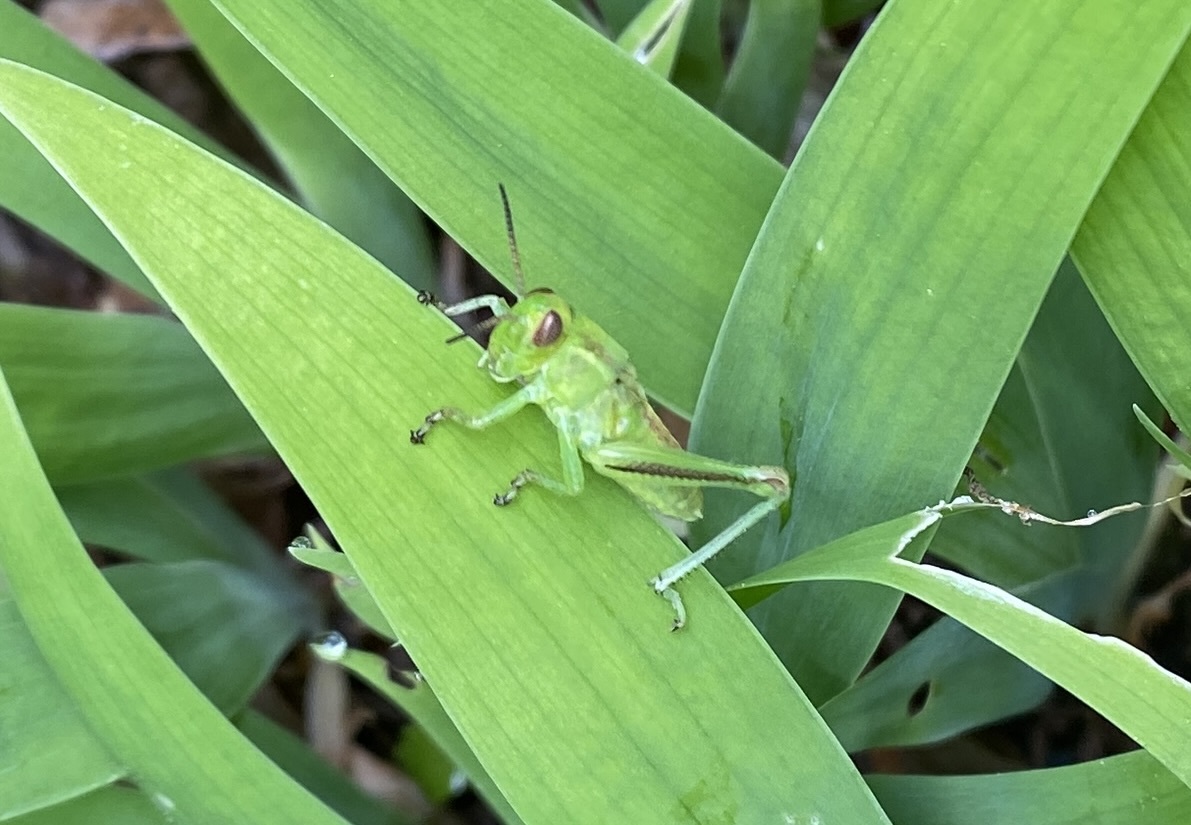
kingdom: Animalia
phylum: Arthropoda
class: Insecta
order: Orthoptera
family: Acrididae
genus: Melanoplus
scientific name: Melanoplus bivittatus
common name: Two-striped grasshopper
